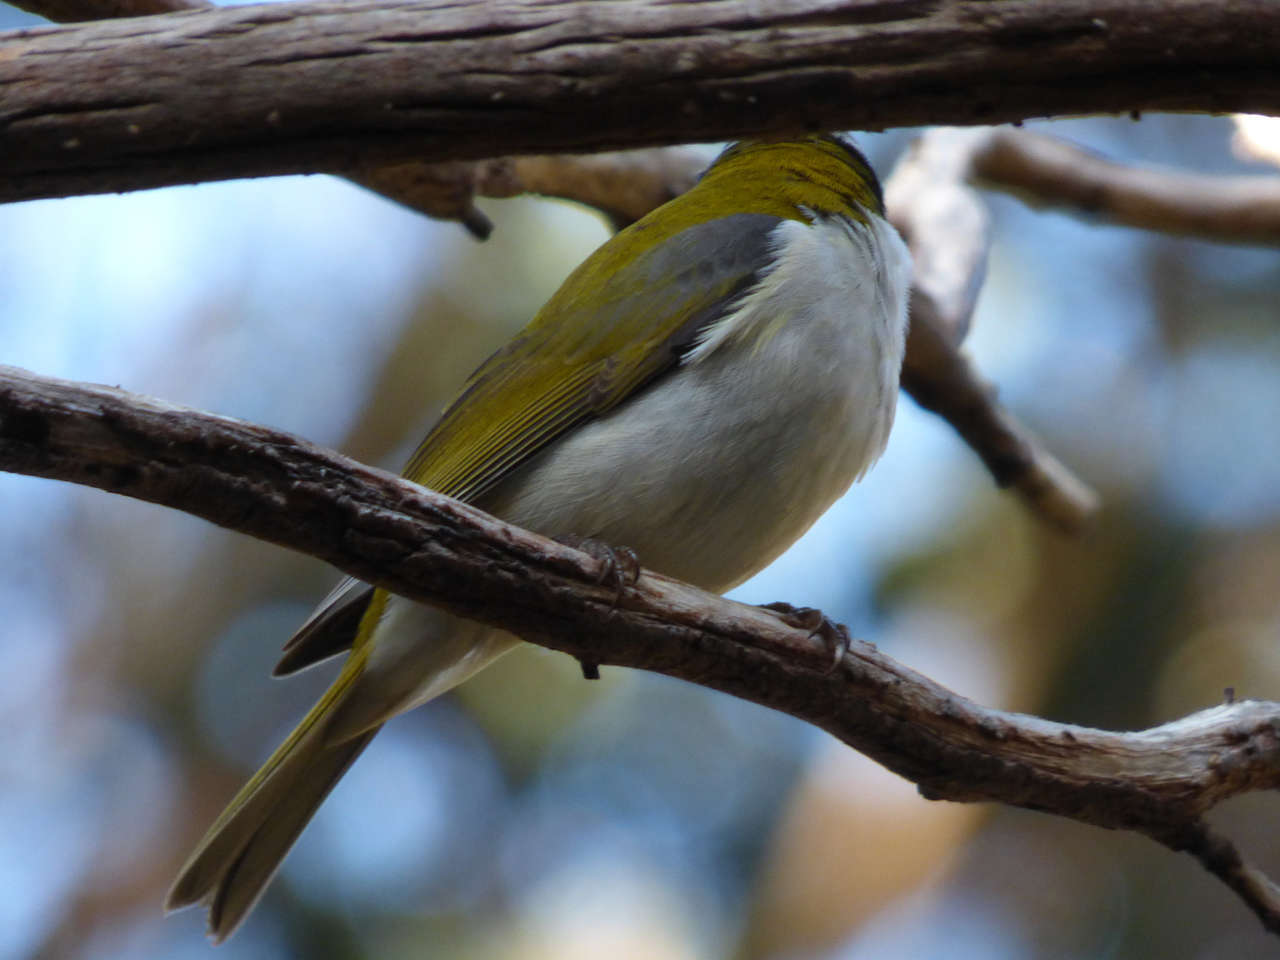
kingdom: Animalia
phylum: Chordata
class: Aves
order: Passeriformes
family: Meliphagidae
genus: Melithreptus
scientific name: Melithreptus lunatus
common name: White-naped honeyeater
